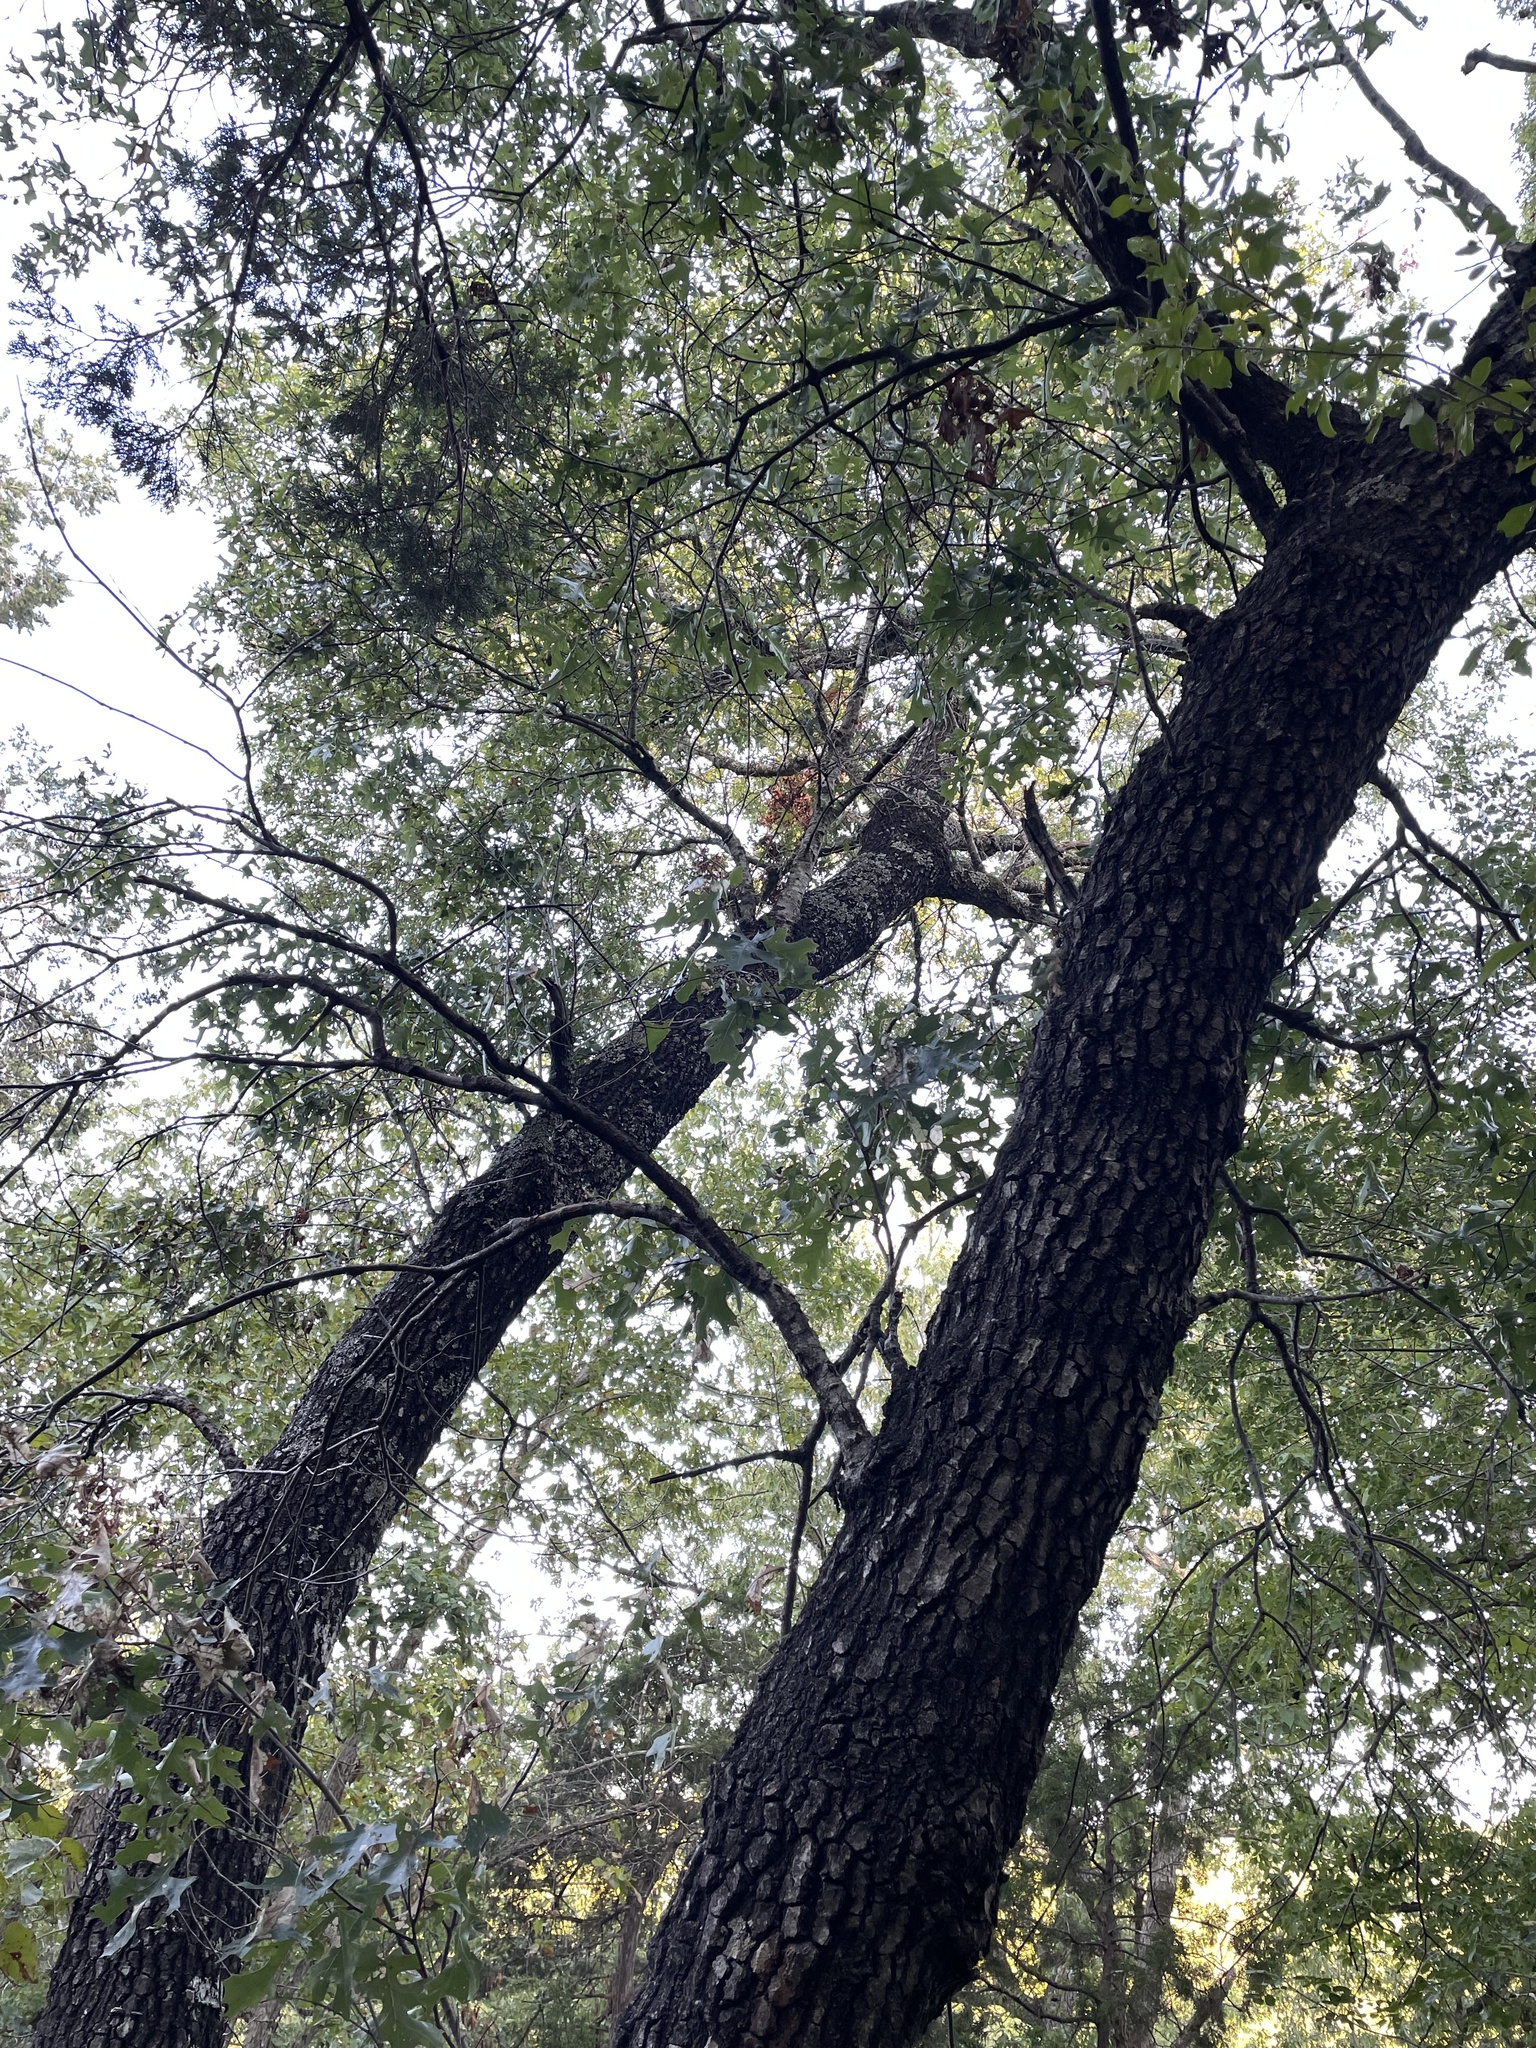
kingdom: Plantae
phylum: Tracheophyta
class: Magnoliopsida
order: Fagales
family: Fagaceae
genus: Quercus
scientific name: Quercus buckleyi
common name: Buckley oak
